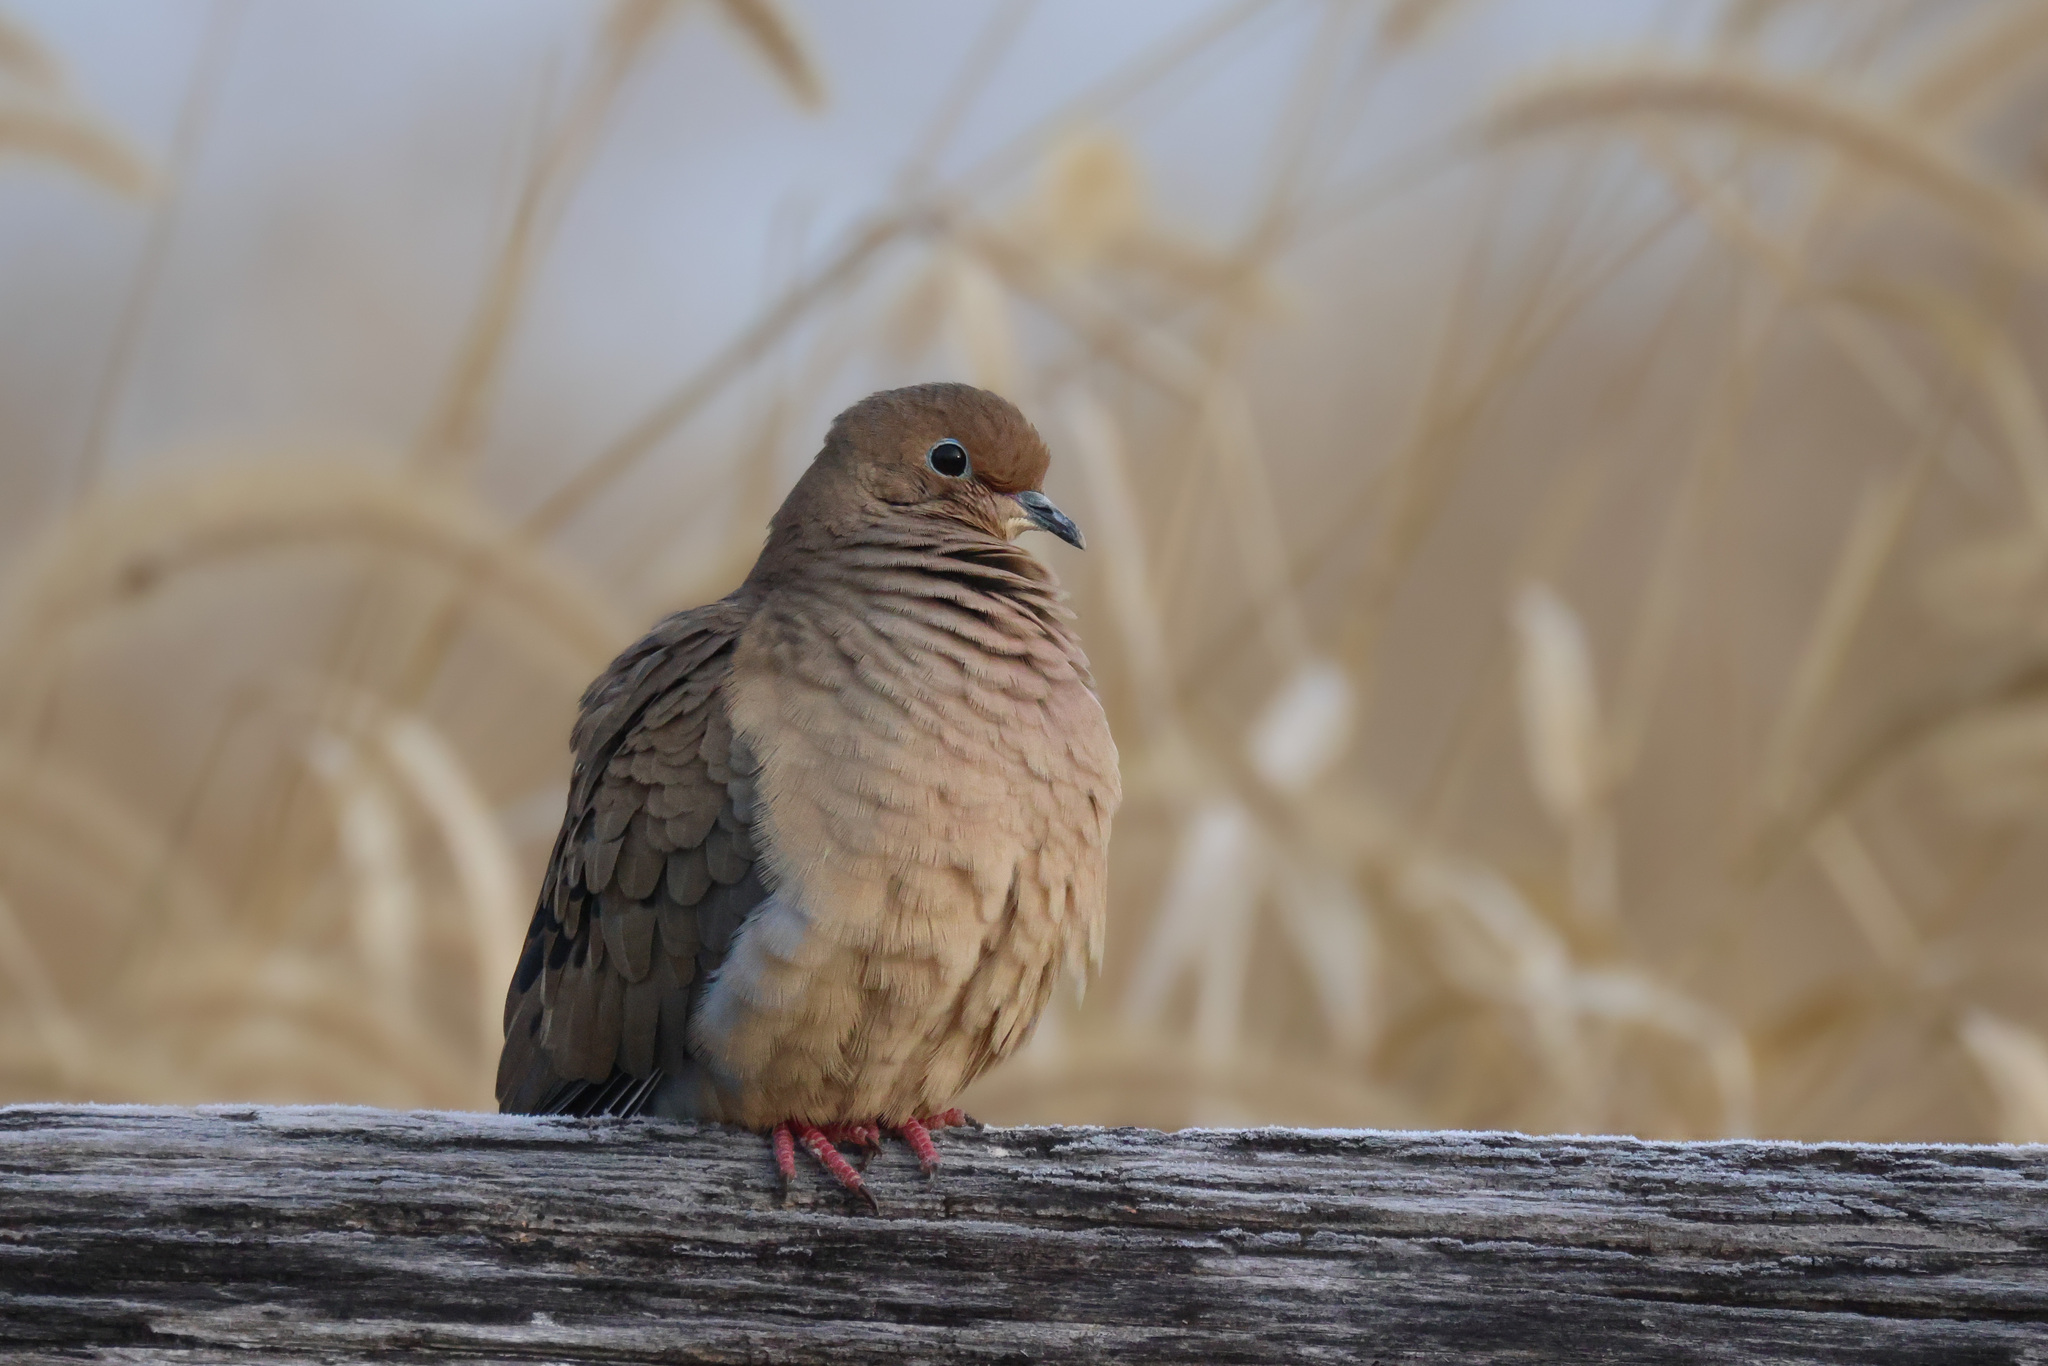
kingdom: Animalia
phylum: Chordata
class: Aves
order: Columbiformes
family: Columbidae
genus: Zenaida
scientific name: Zenaida macroura
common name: Mourning dove
